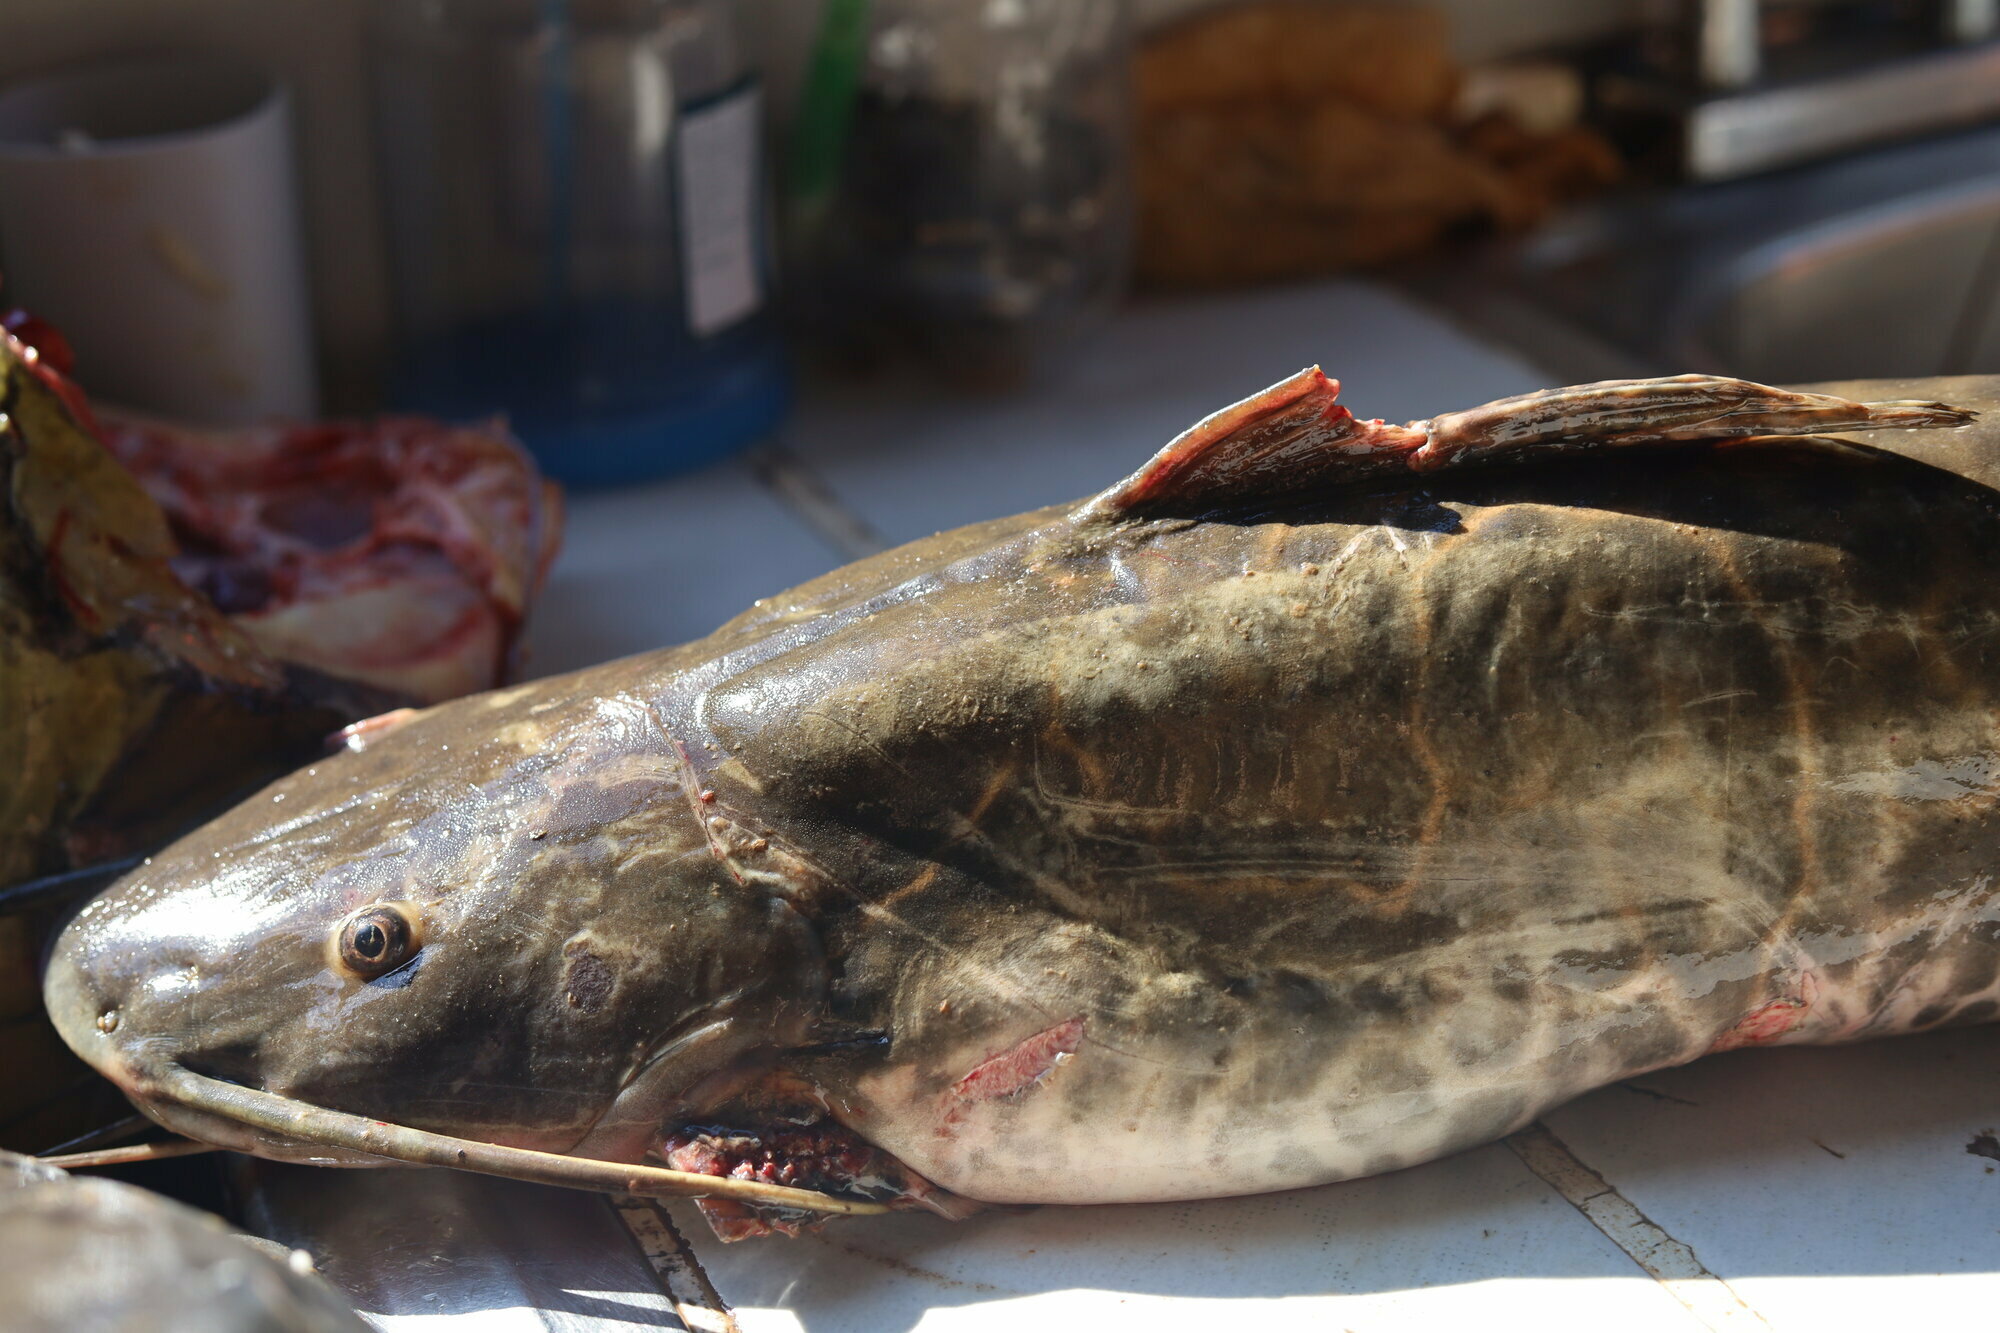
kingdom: Animalia
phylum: Chordata
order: Siluriformes
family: Pimelodidae
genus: Leiarius
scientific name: Leiarius marmoratus
